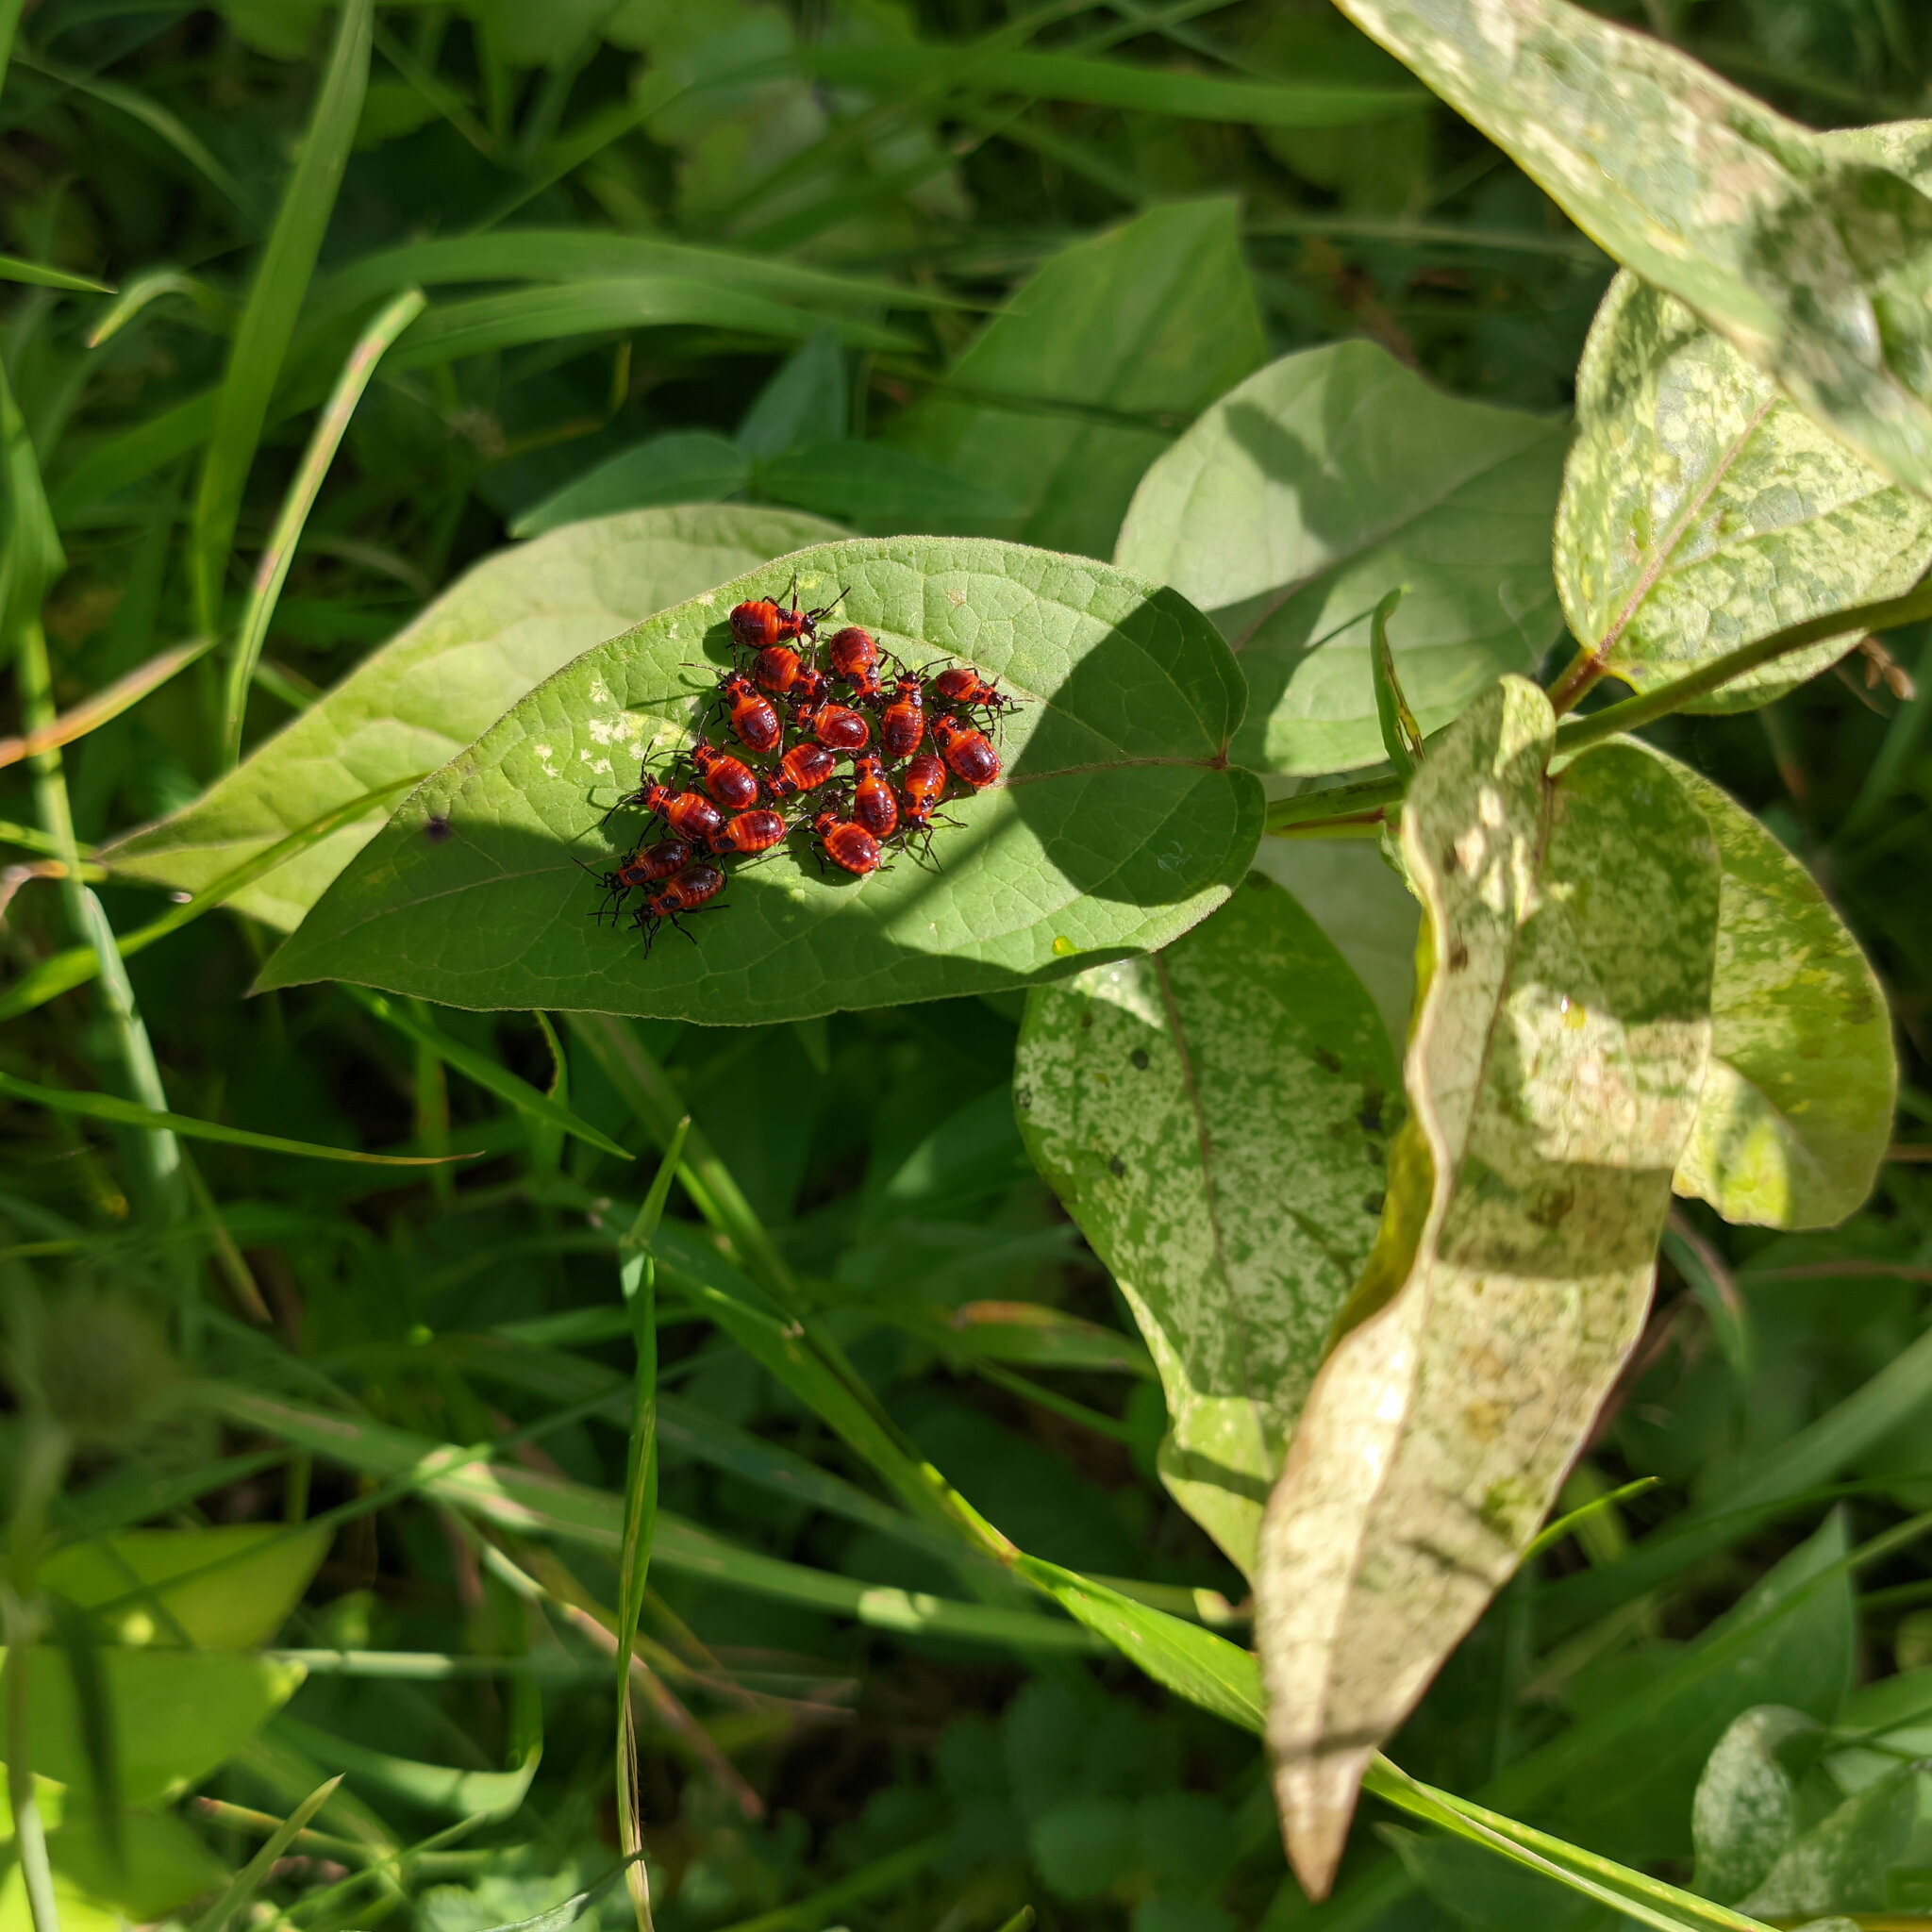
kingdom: Animalia
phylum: Arthropoda
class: Insecta
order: Hemiptera
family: Lygaeidae
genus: Tropidothorax
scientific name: Tropidothorax leucopterus
